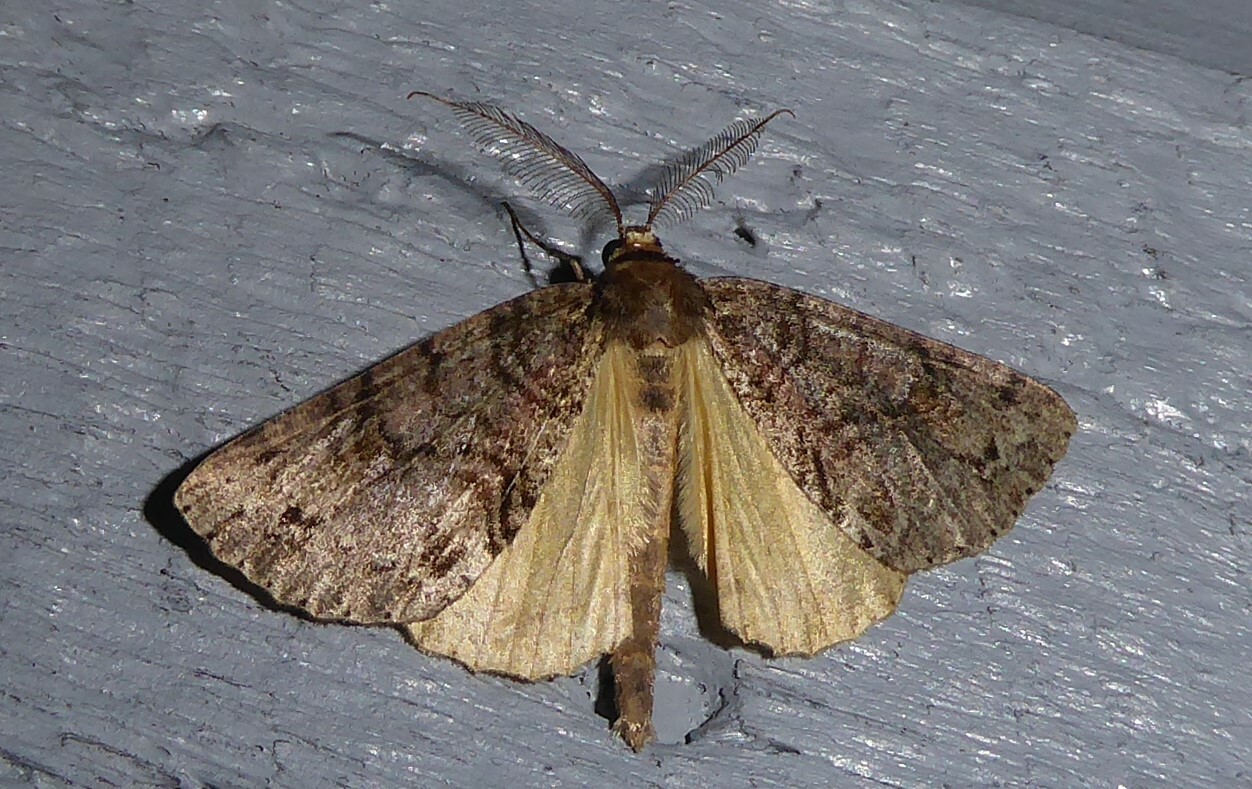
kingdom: Animalia
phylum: Arthropoda
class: Insecta
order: Lepidoptera
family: Geometridae
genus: Pseudocoremia
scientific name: Pseudocoremia suavis
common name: Common forest looper
